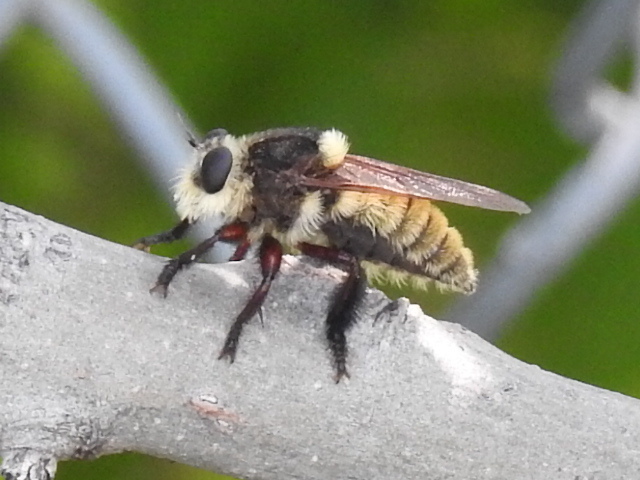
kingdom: Animalia
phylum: Arthropoda
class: Insecta
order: Diptera
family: Asilidae
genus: Mallophora
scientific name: Mallophora fautrix
